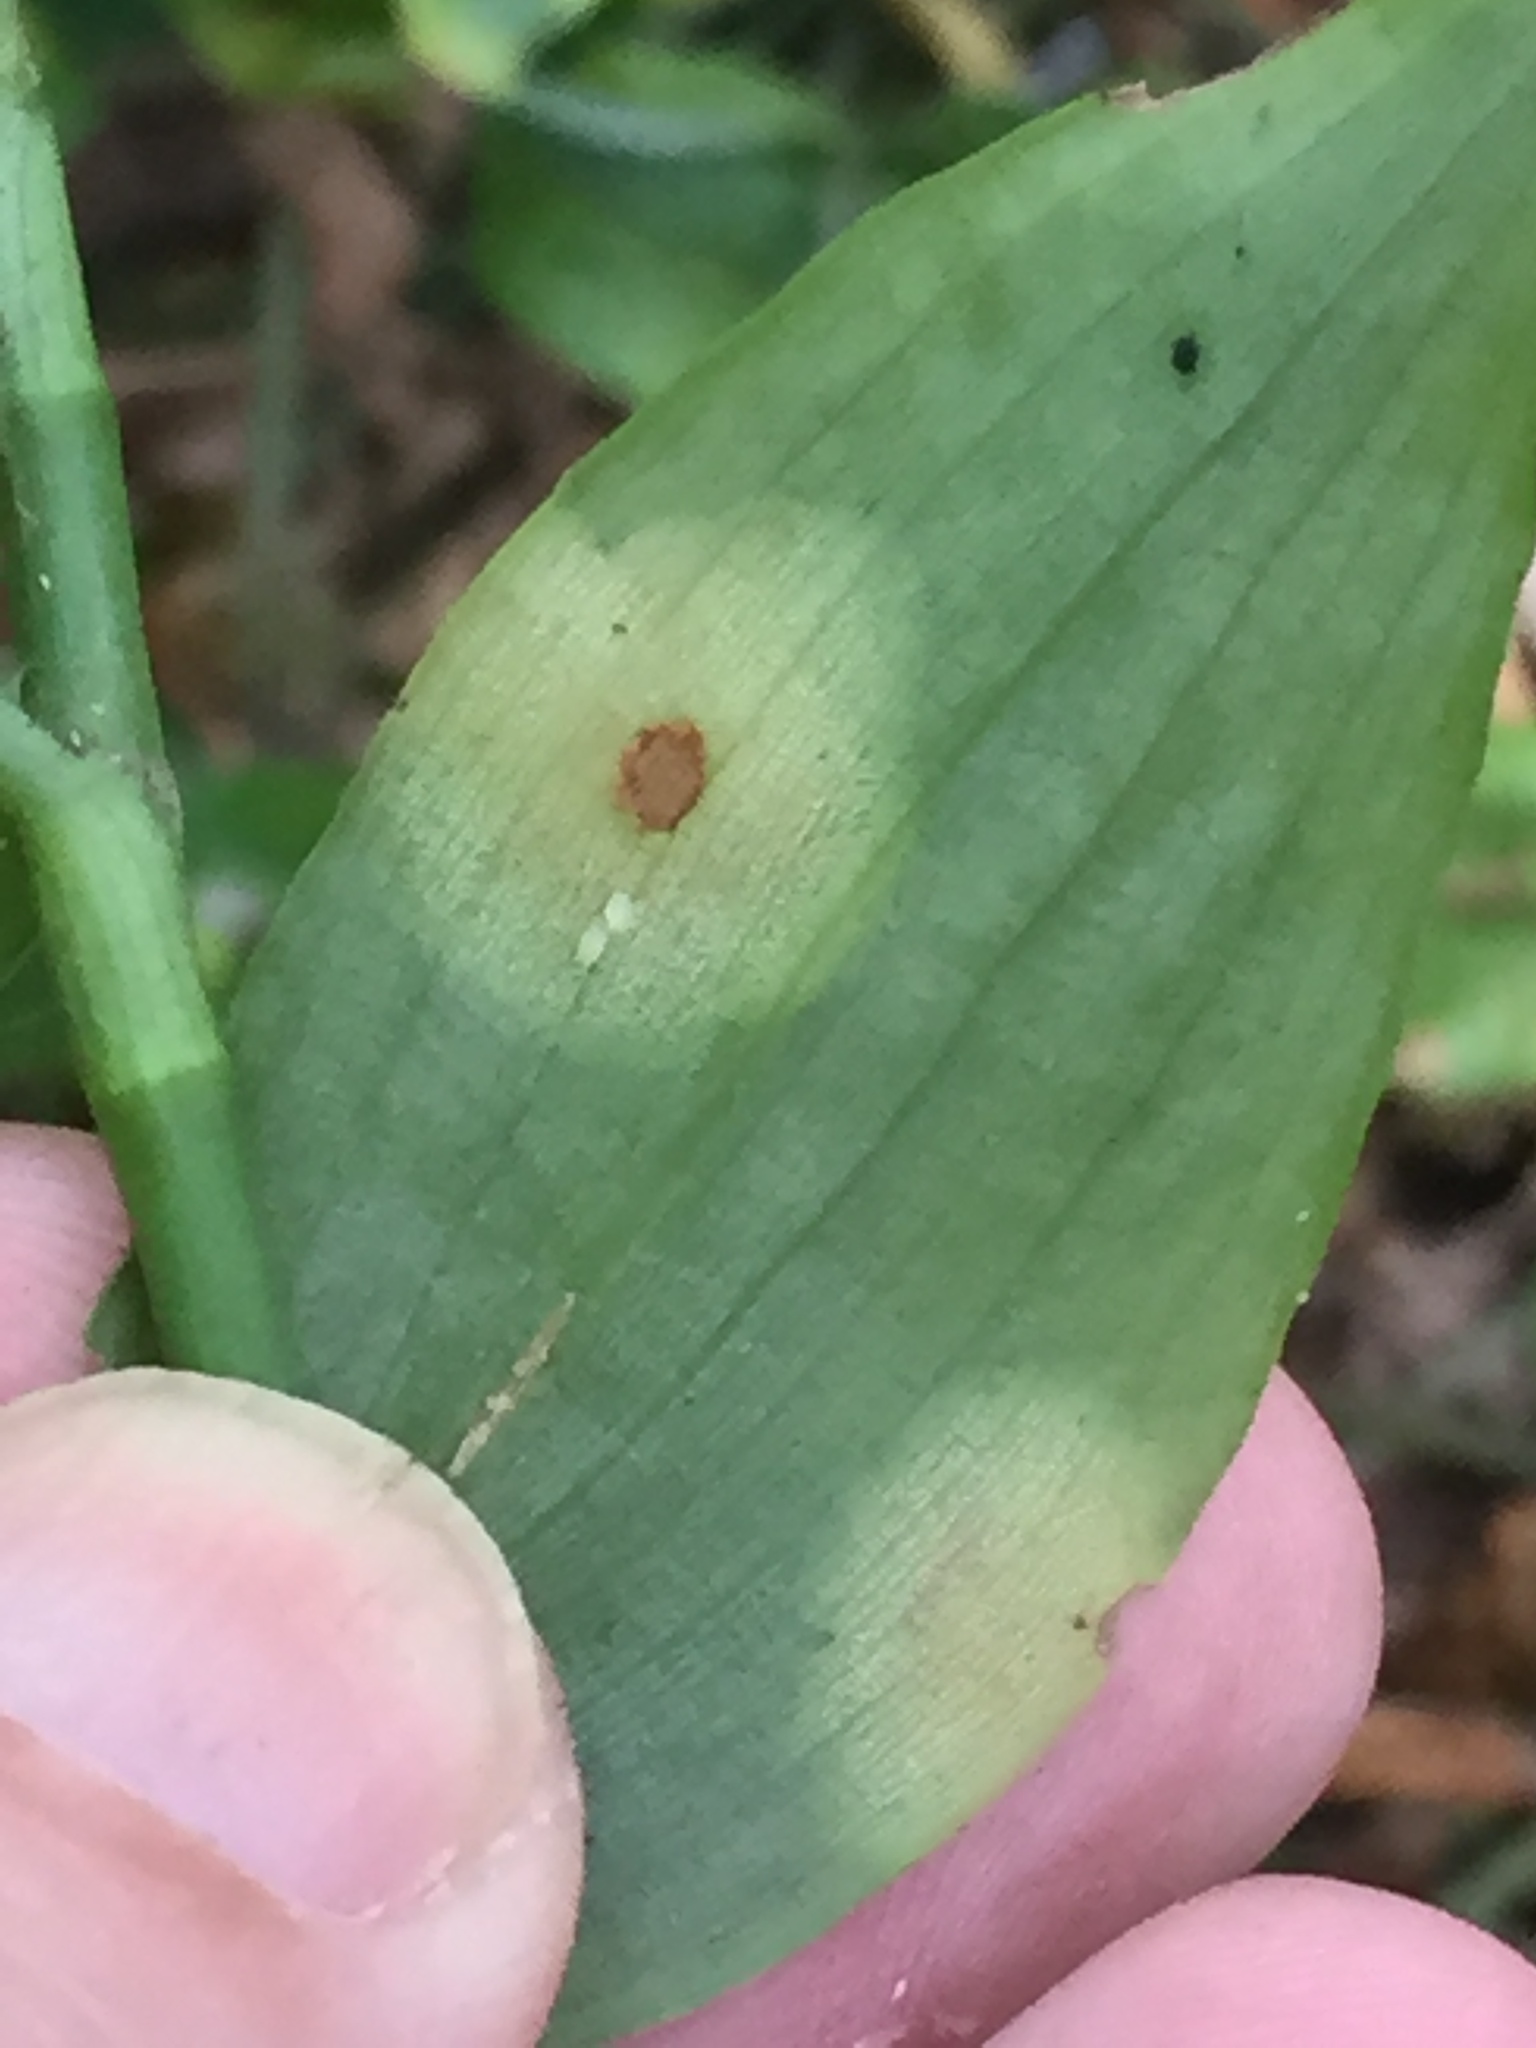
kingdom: Fungi
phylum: Basidiomycota
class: Exobasidiomycetes
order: Exobasidiales
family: Brachybasidiaceae
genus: Kordyana
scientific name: Kordyana brasiliensis
